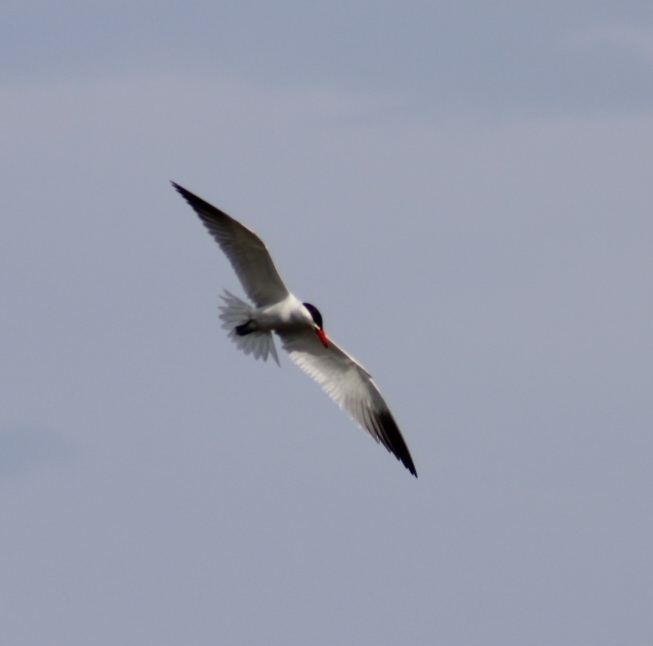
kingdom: Animalia
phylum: Chordata
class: Aves
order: Charadriiformes
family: Laridae
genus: Hydroprogne
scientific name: Hydroprogne caspia
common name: Caspian tern
